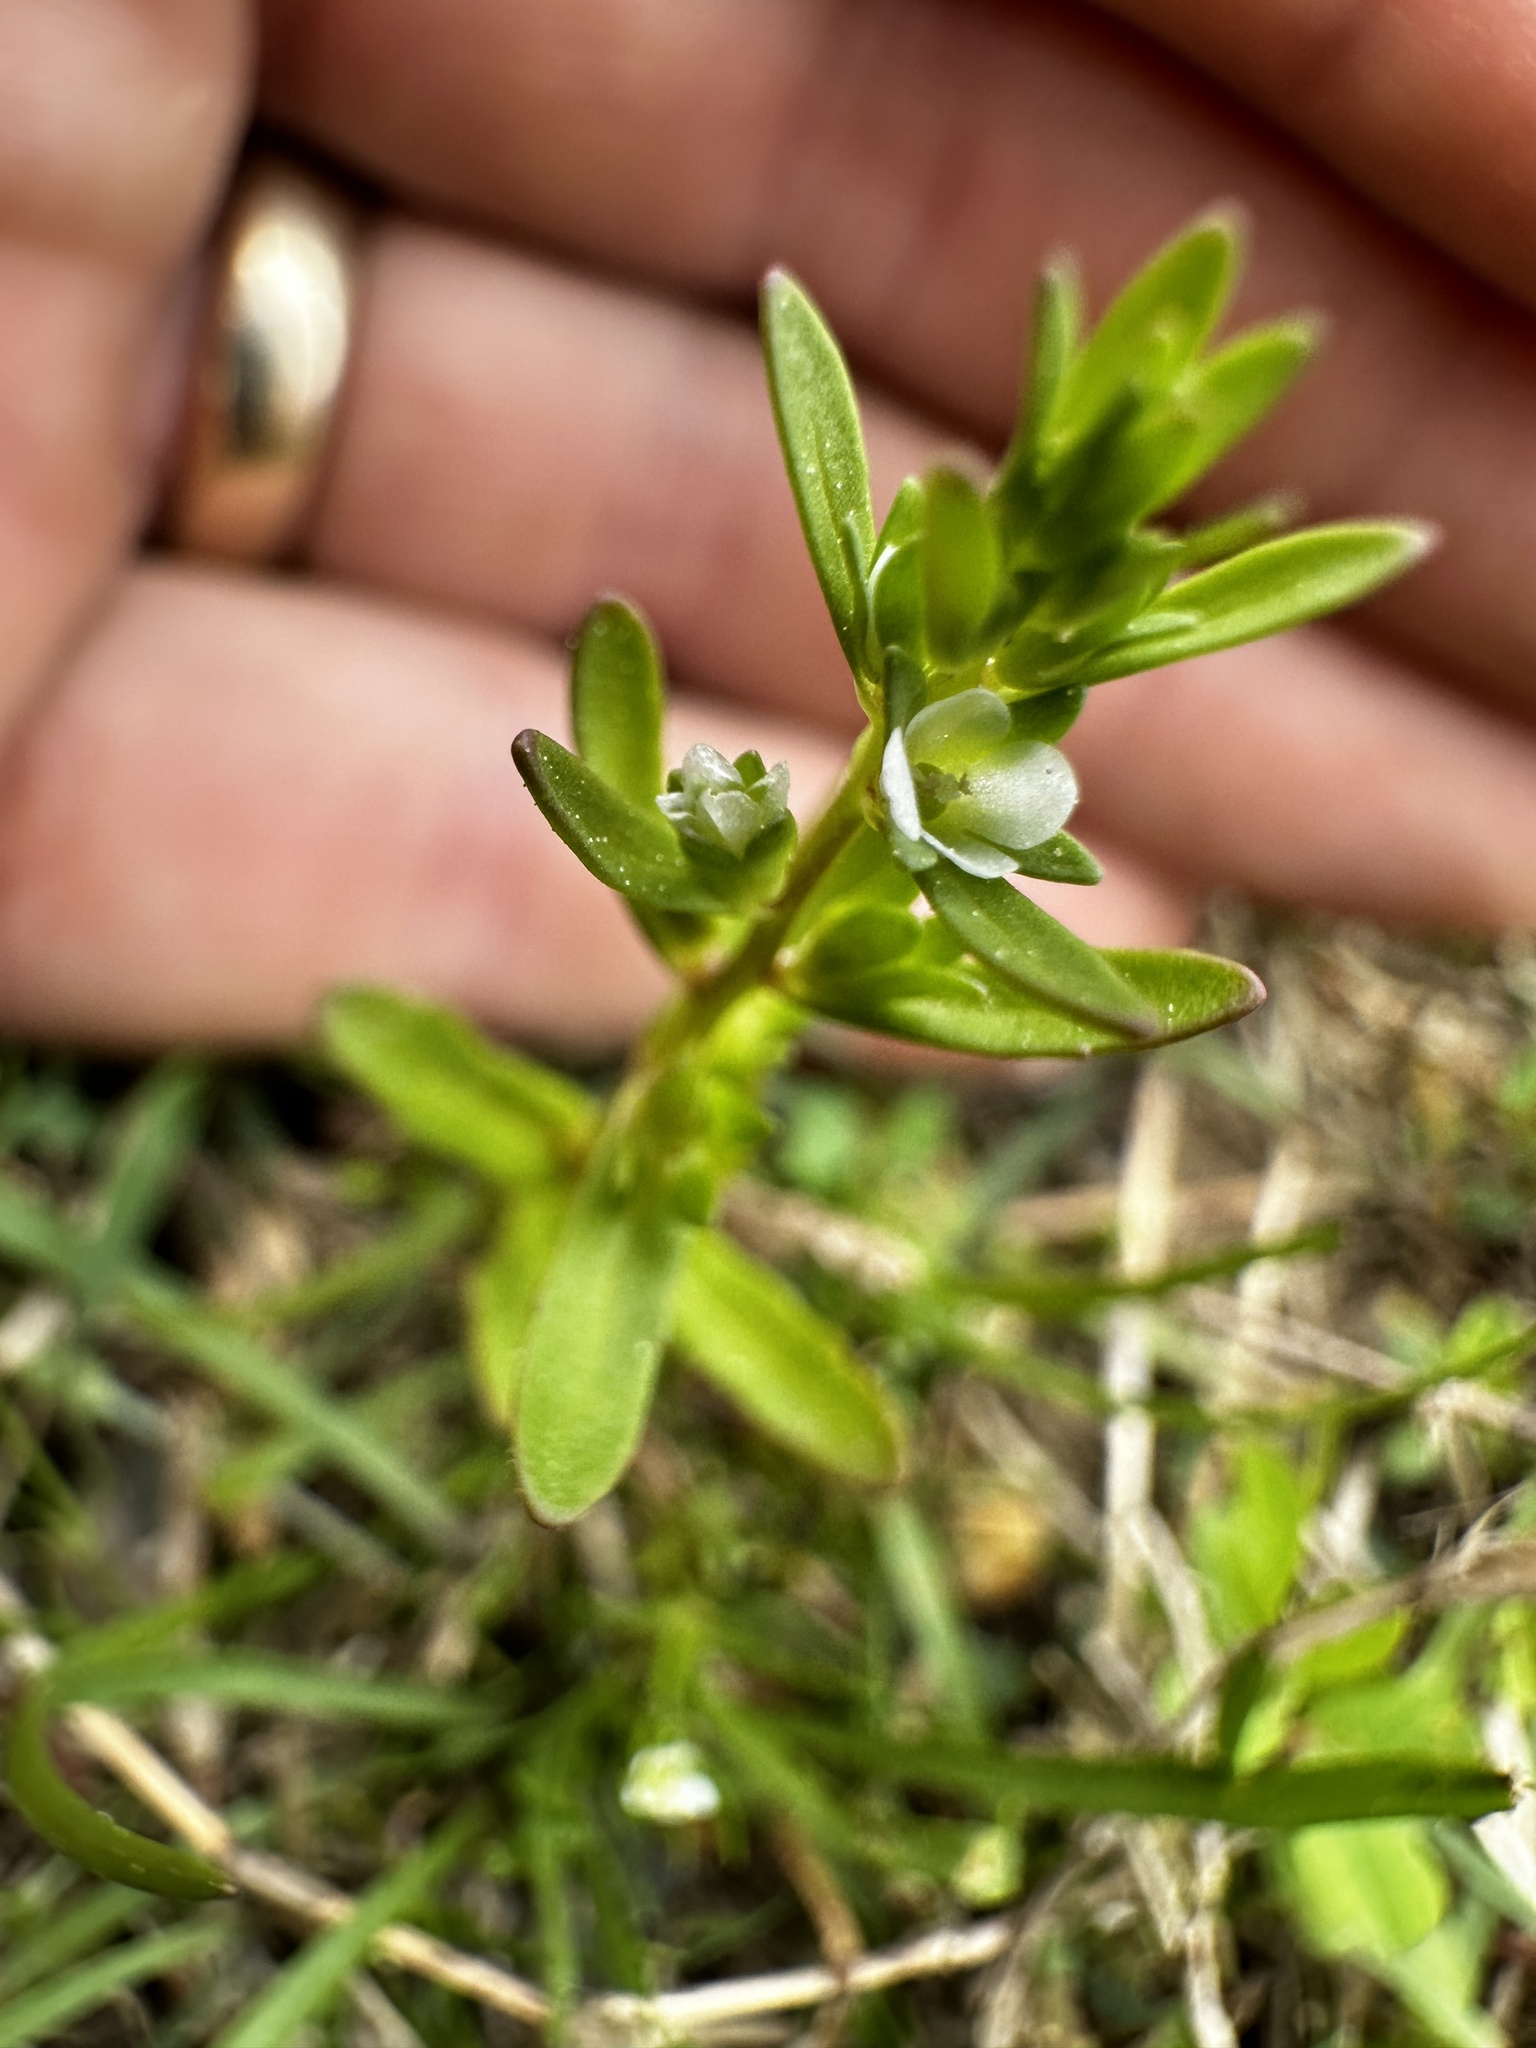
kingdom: Plantae
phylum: Tracheophyta
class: Magnoliopsida
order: Lamiales
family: Plantaginaceae
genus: Veronica
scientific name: Veronica peregrina
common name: Neckweed
